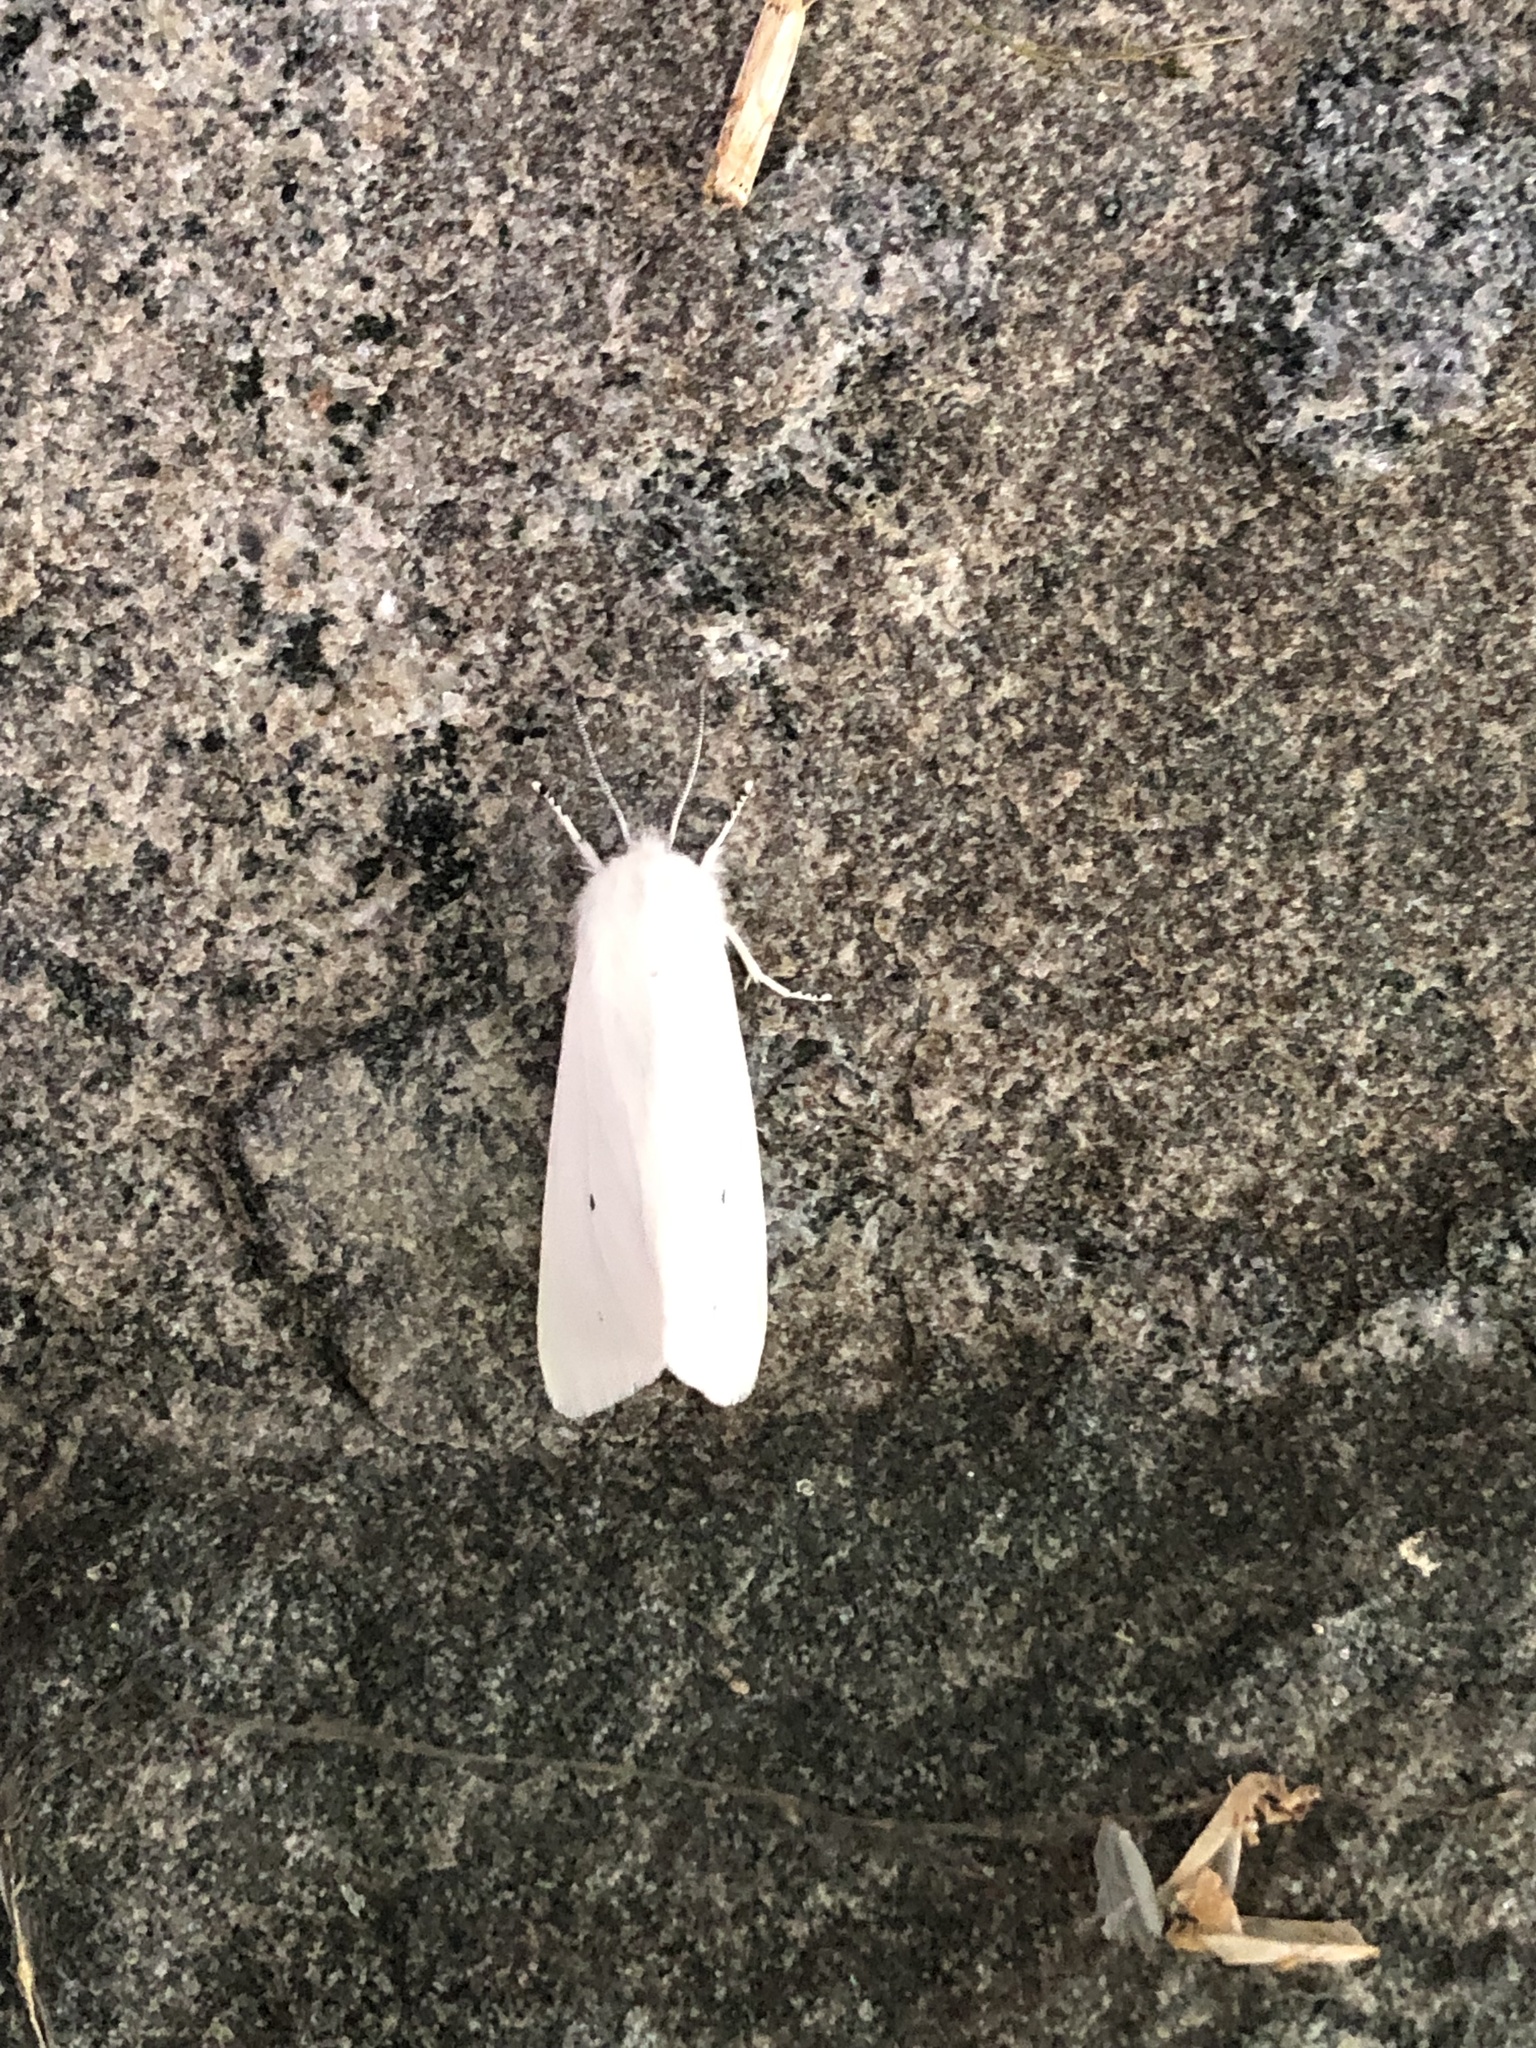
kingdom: Animalia
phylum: Arthropoda
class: Insecta
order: Lepidoptera
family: Erebidae
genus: Spilosoma
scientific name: Spilosoma virginica
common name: Virginia tiger moth
